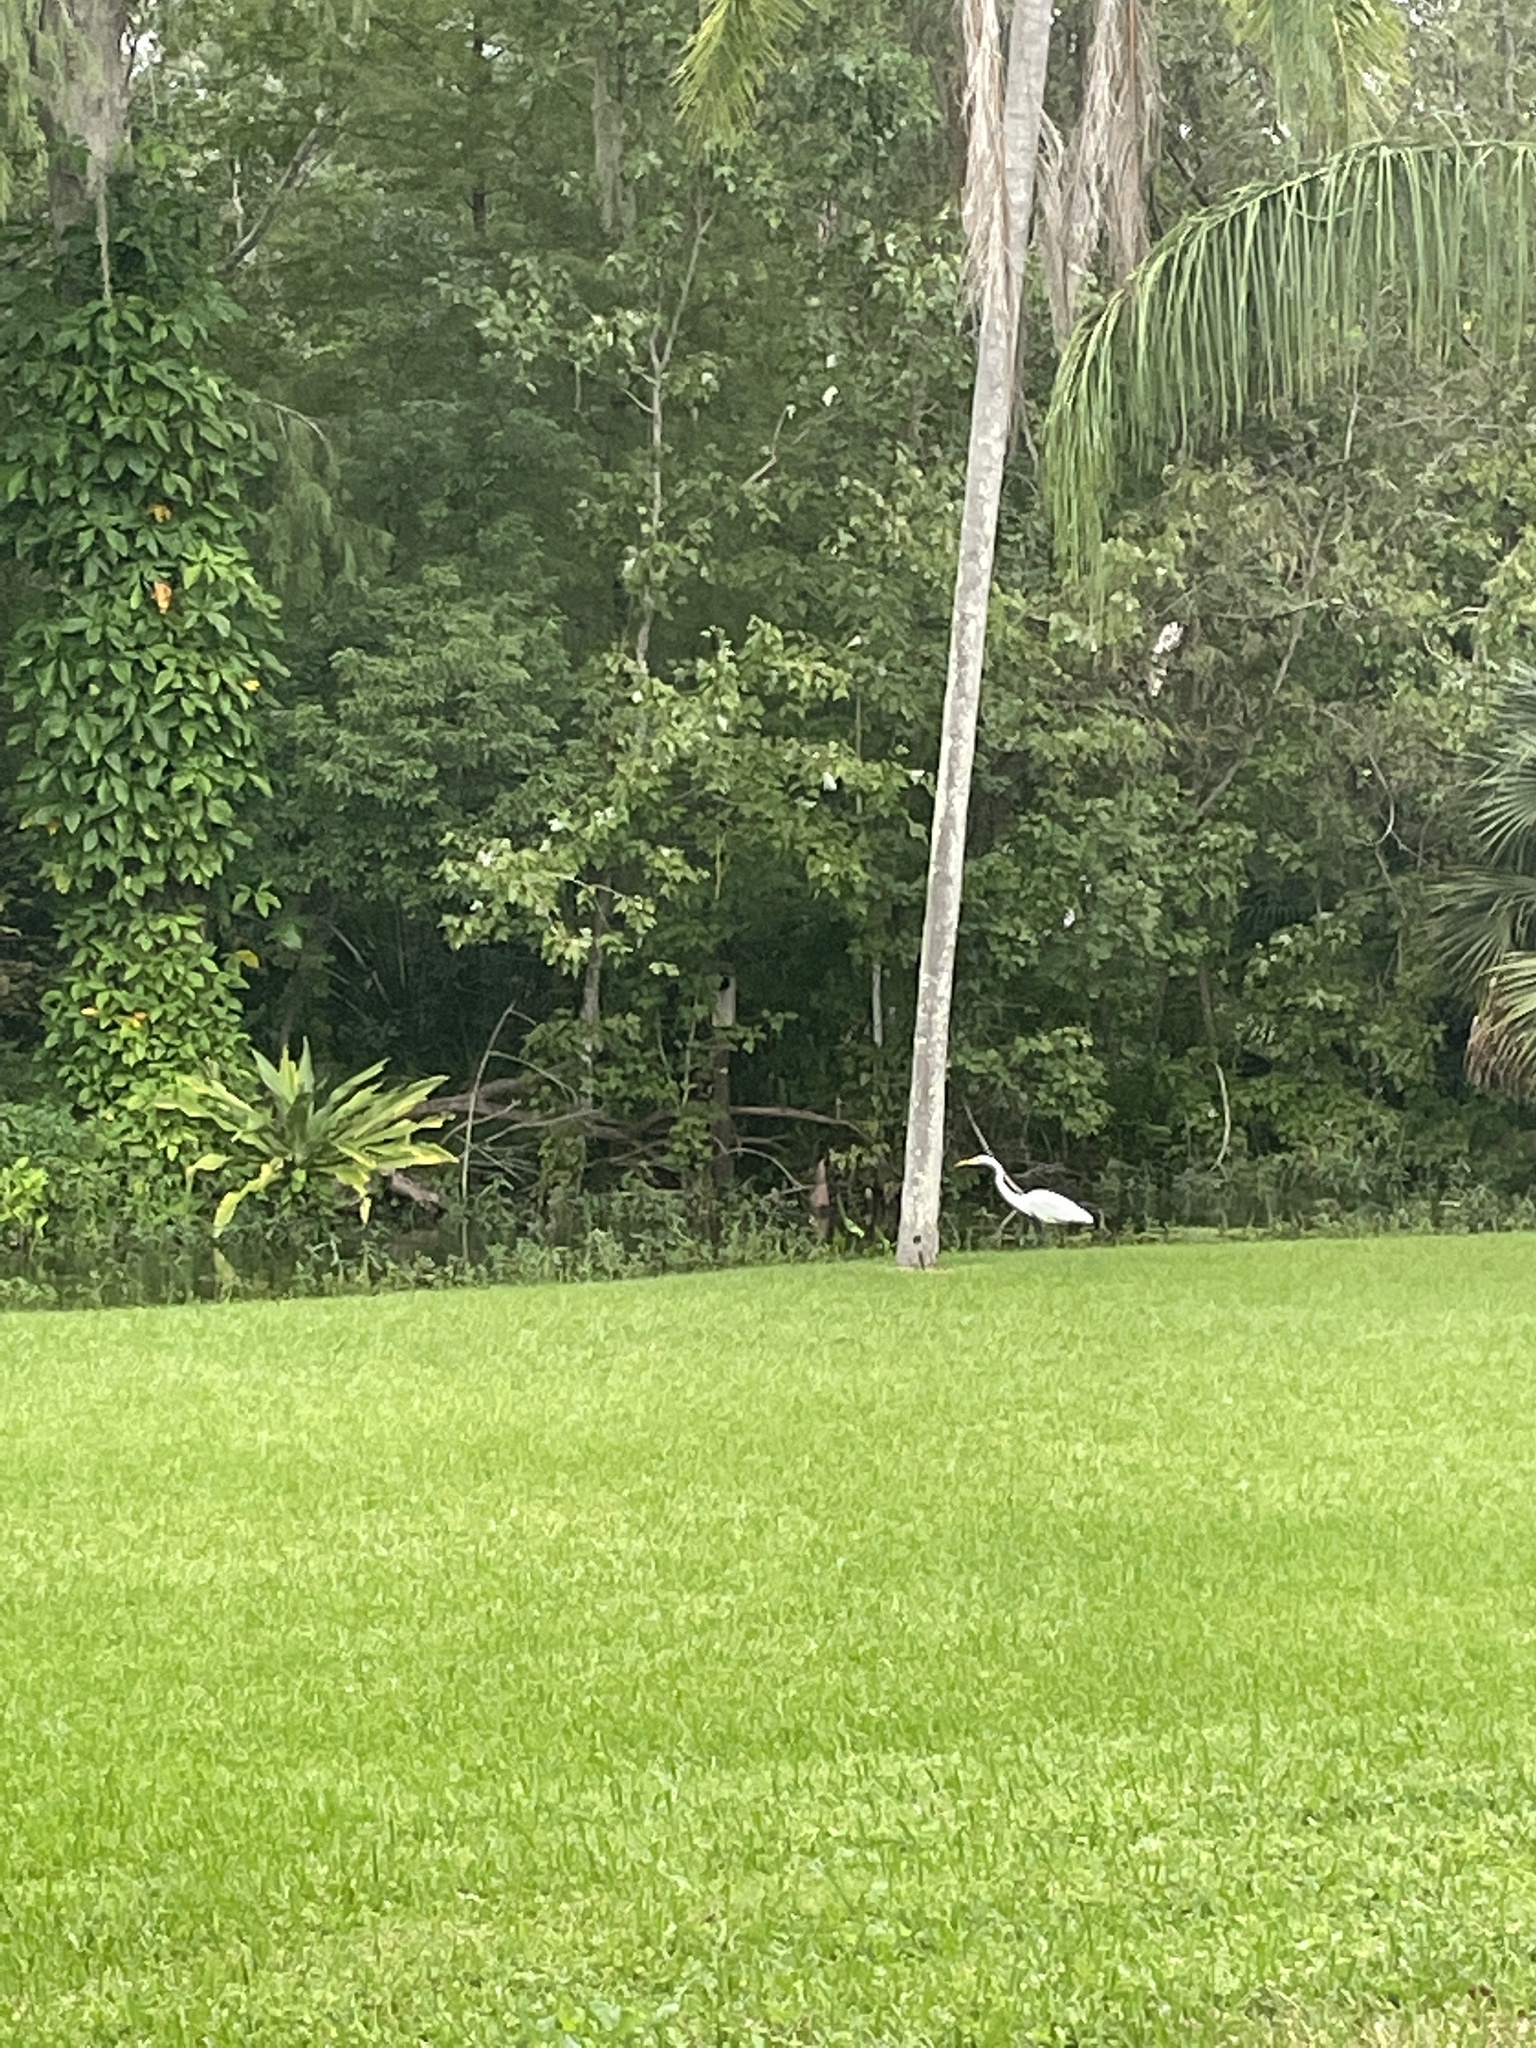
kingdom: Animalia
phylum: Chordata
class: Aves
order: Pelecaniformes
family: Ardeidae
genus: Ardea
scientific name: Ardea alba
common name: Great egret
